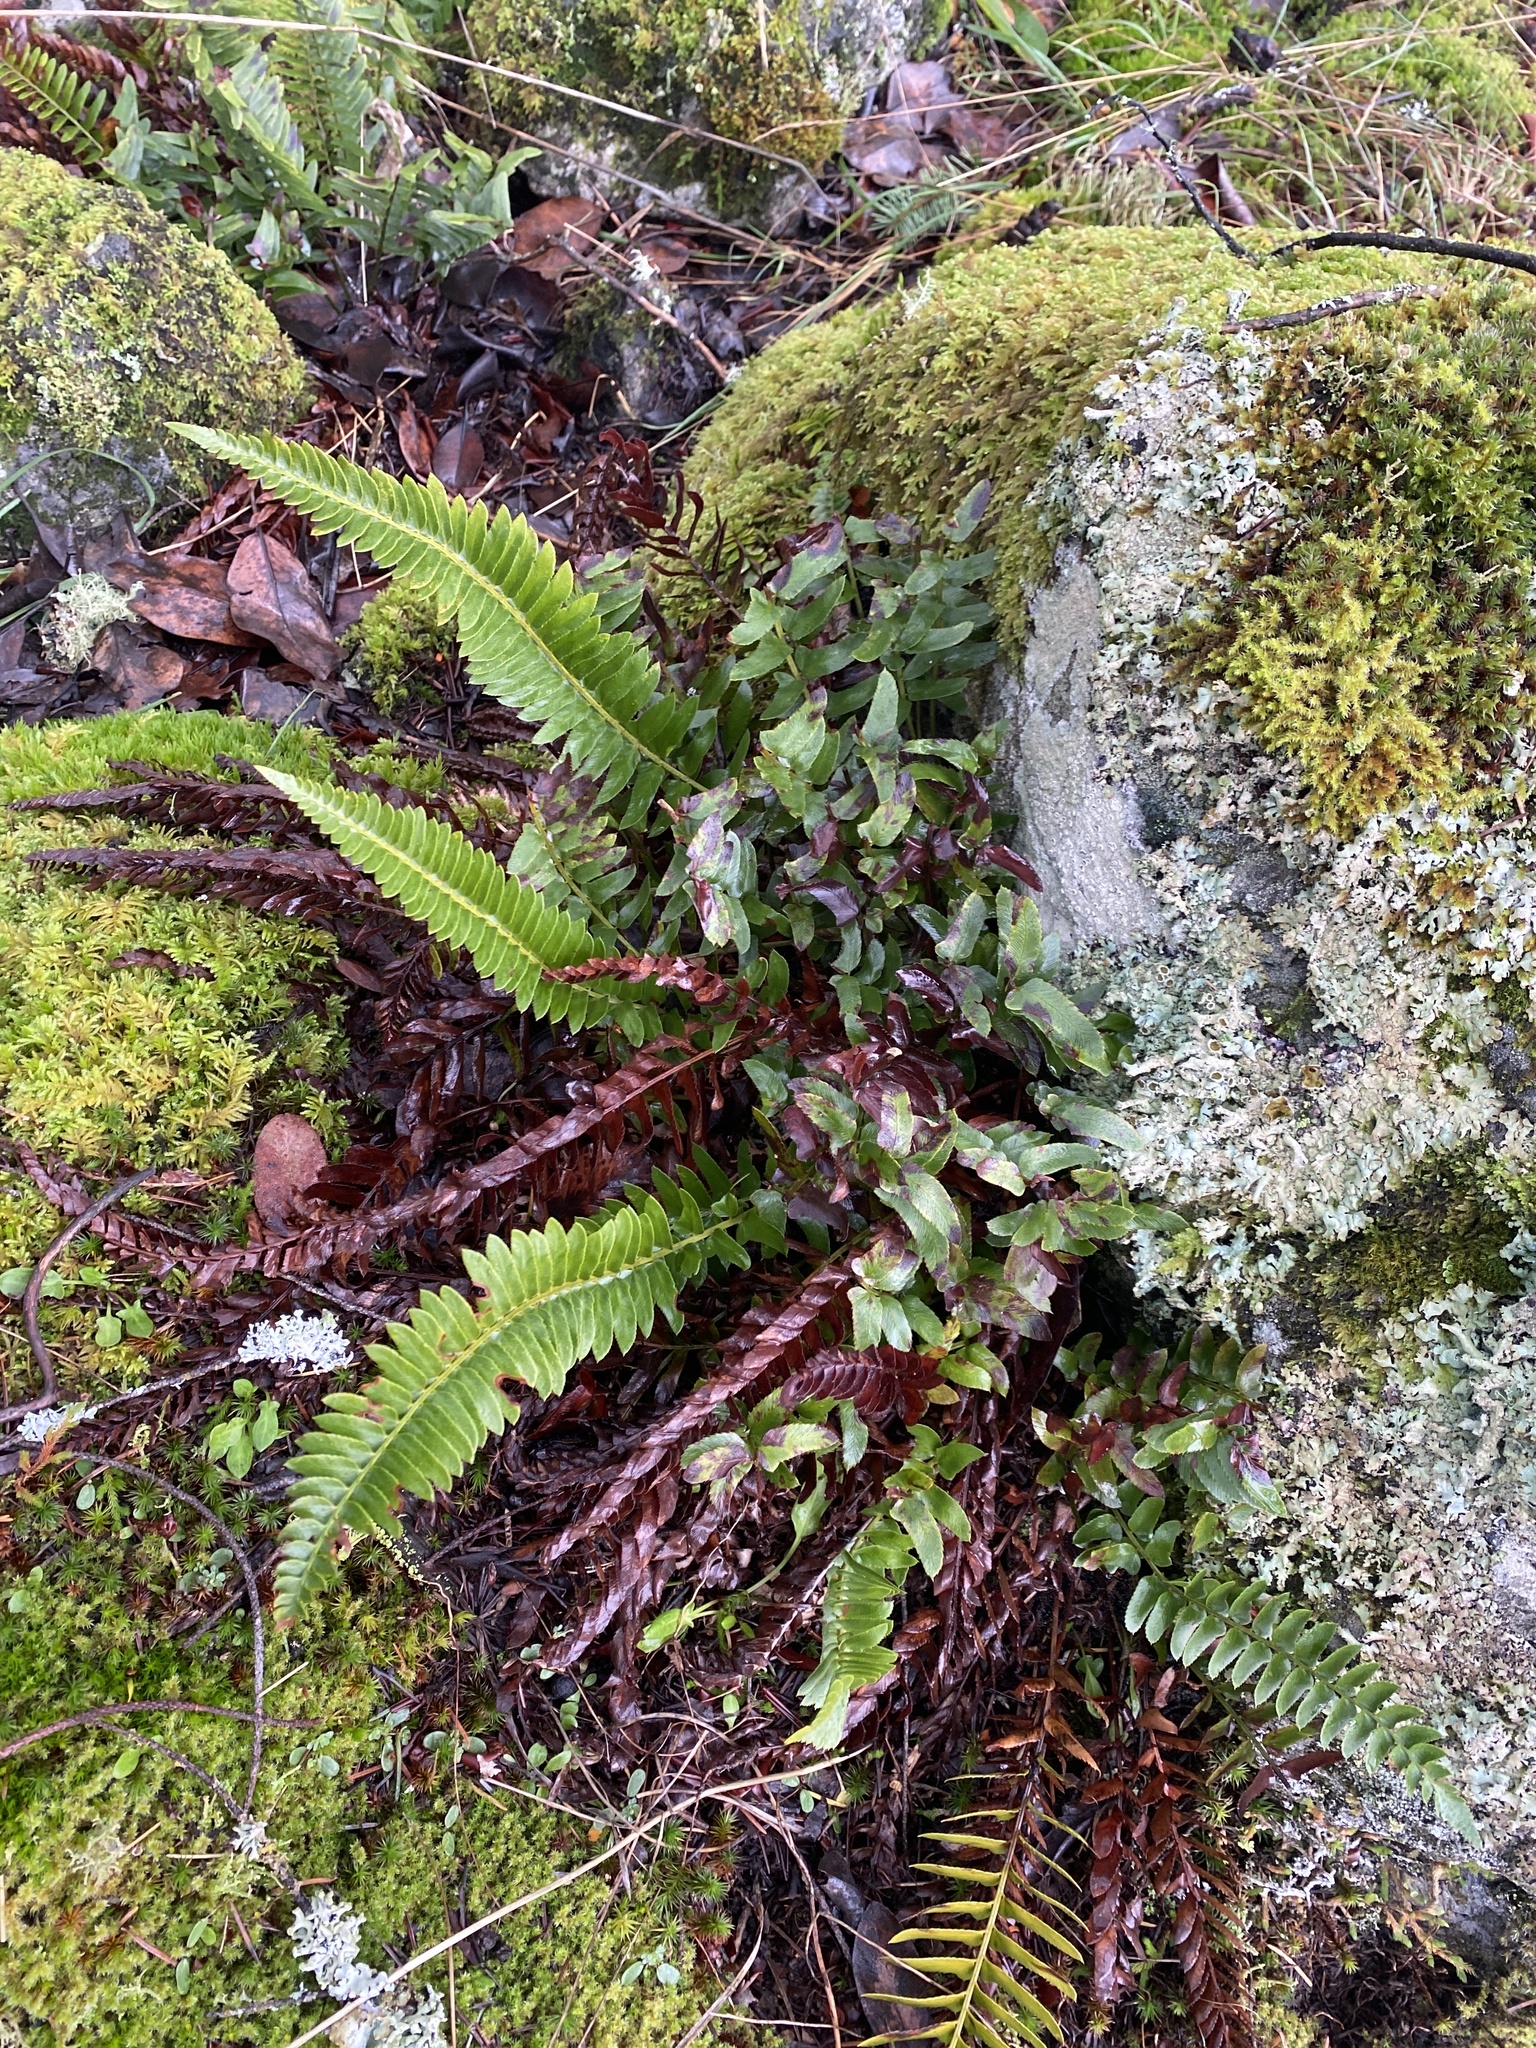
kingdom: Plantae
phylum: Tracheophyta
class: Polypodiopsida
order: Polypodiales
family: Dryopteridaceae
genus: Polystichum
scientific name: Polystichum imbricans
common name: Dwarf western sword fern
